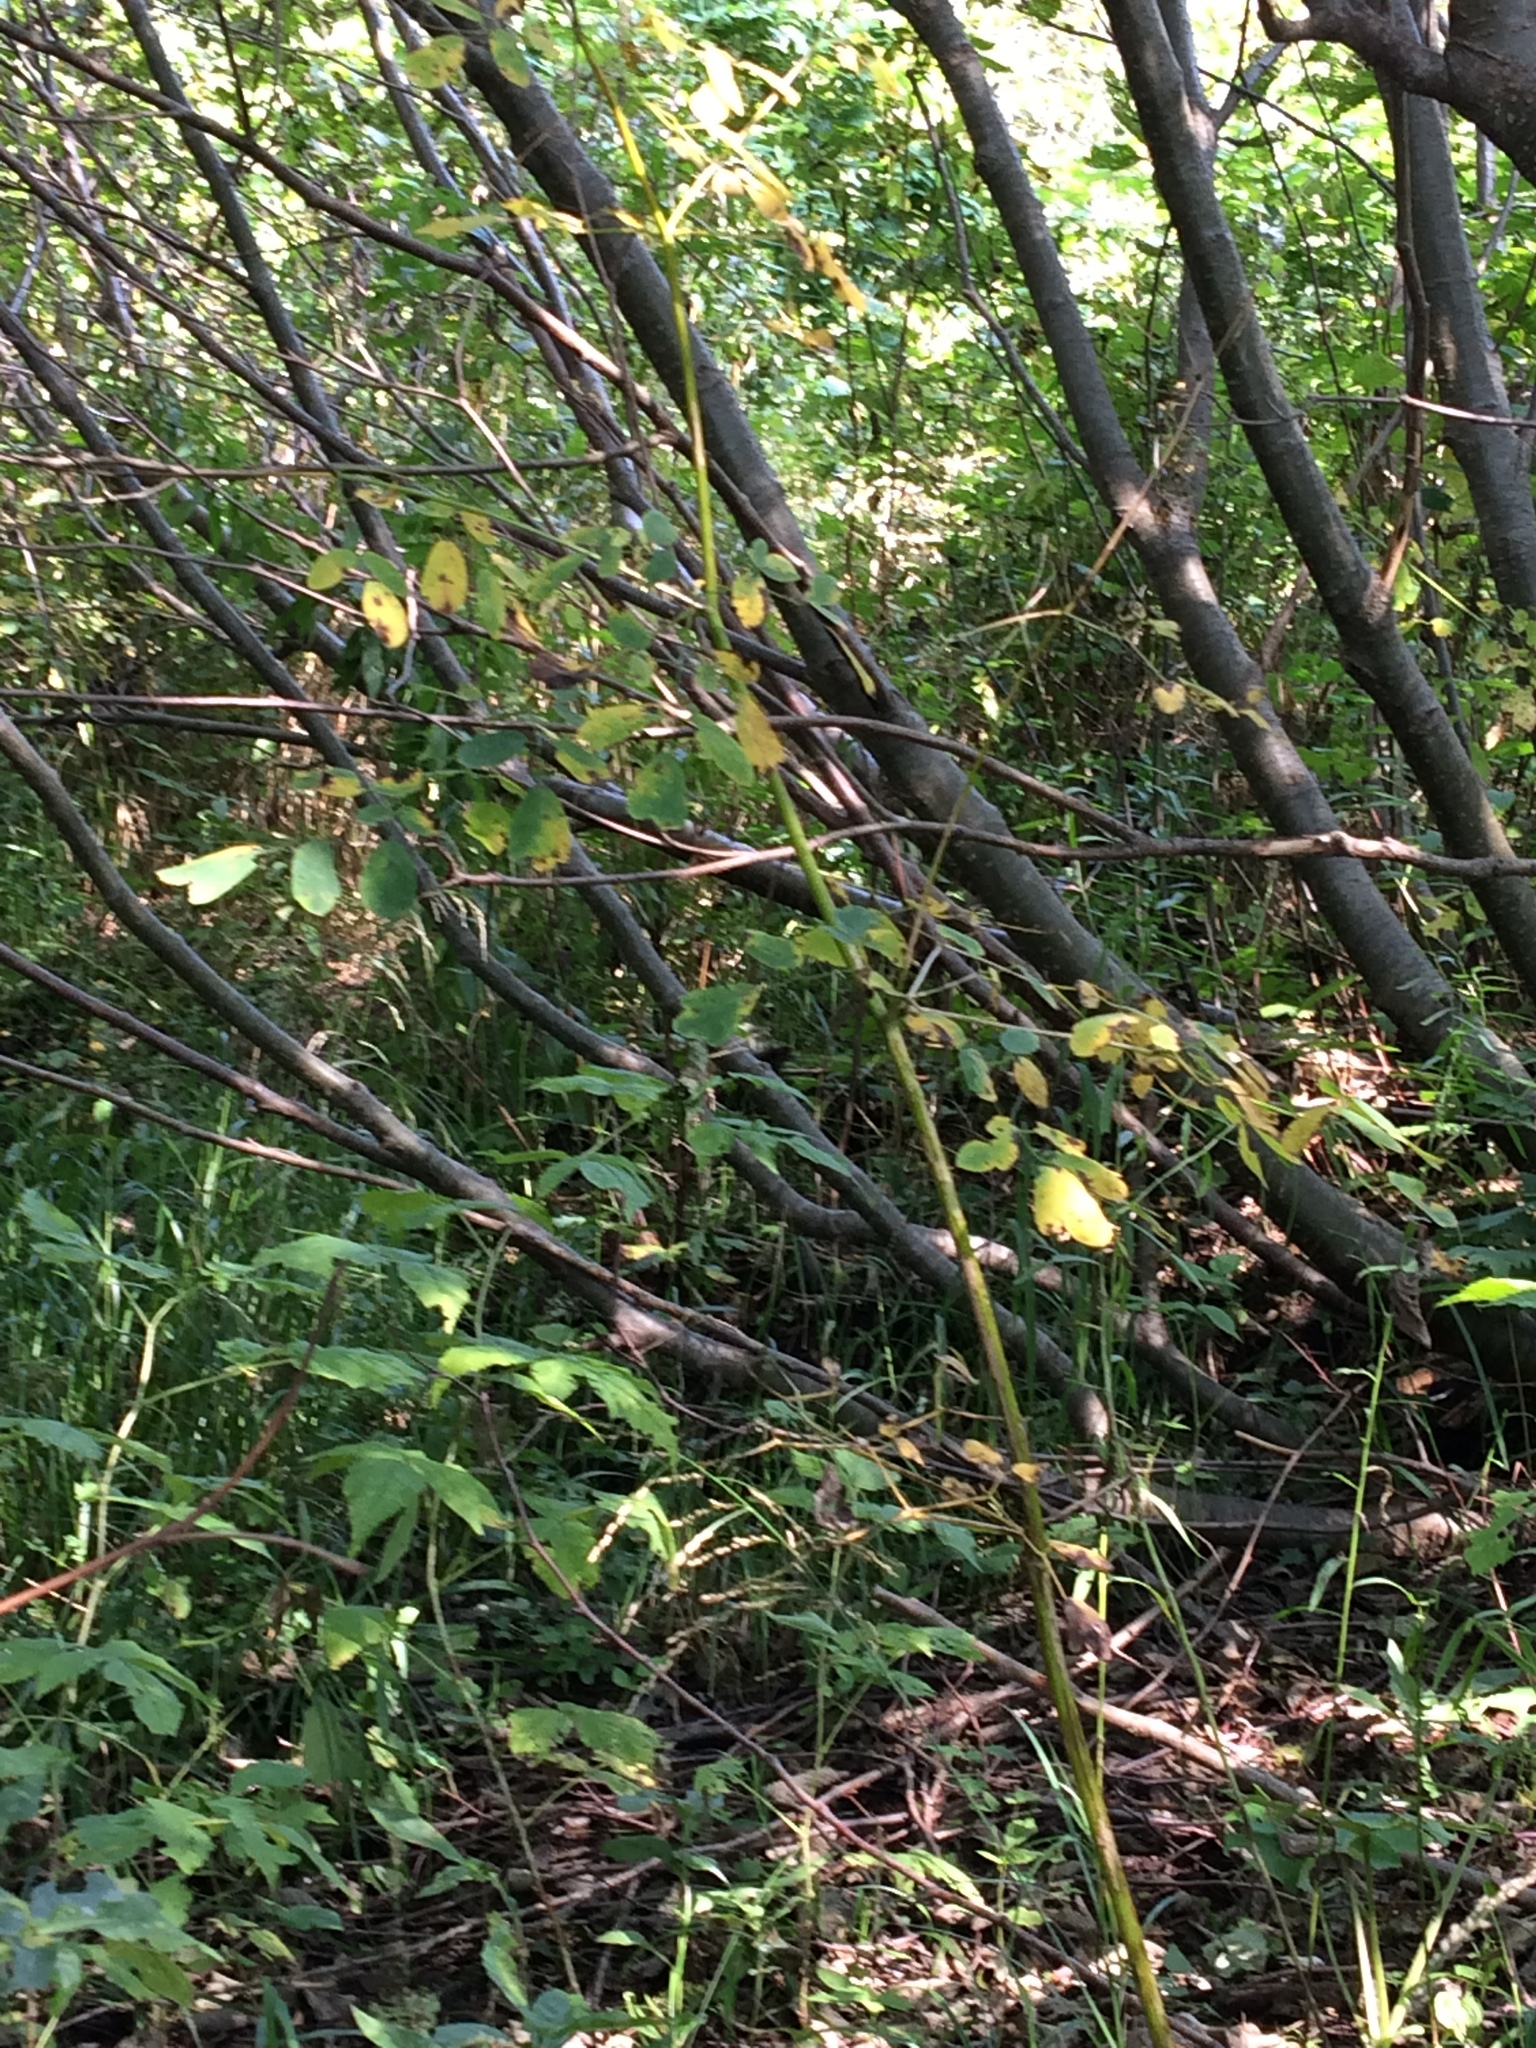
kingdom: Plantae
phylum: Tracheophyta
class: Magnoliopsida
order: Ranunculales
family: Ranunculaceae
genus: Thalictrum
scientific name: Thalictrum pubescens
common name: King-of-the-meadow
